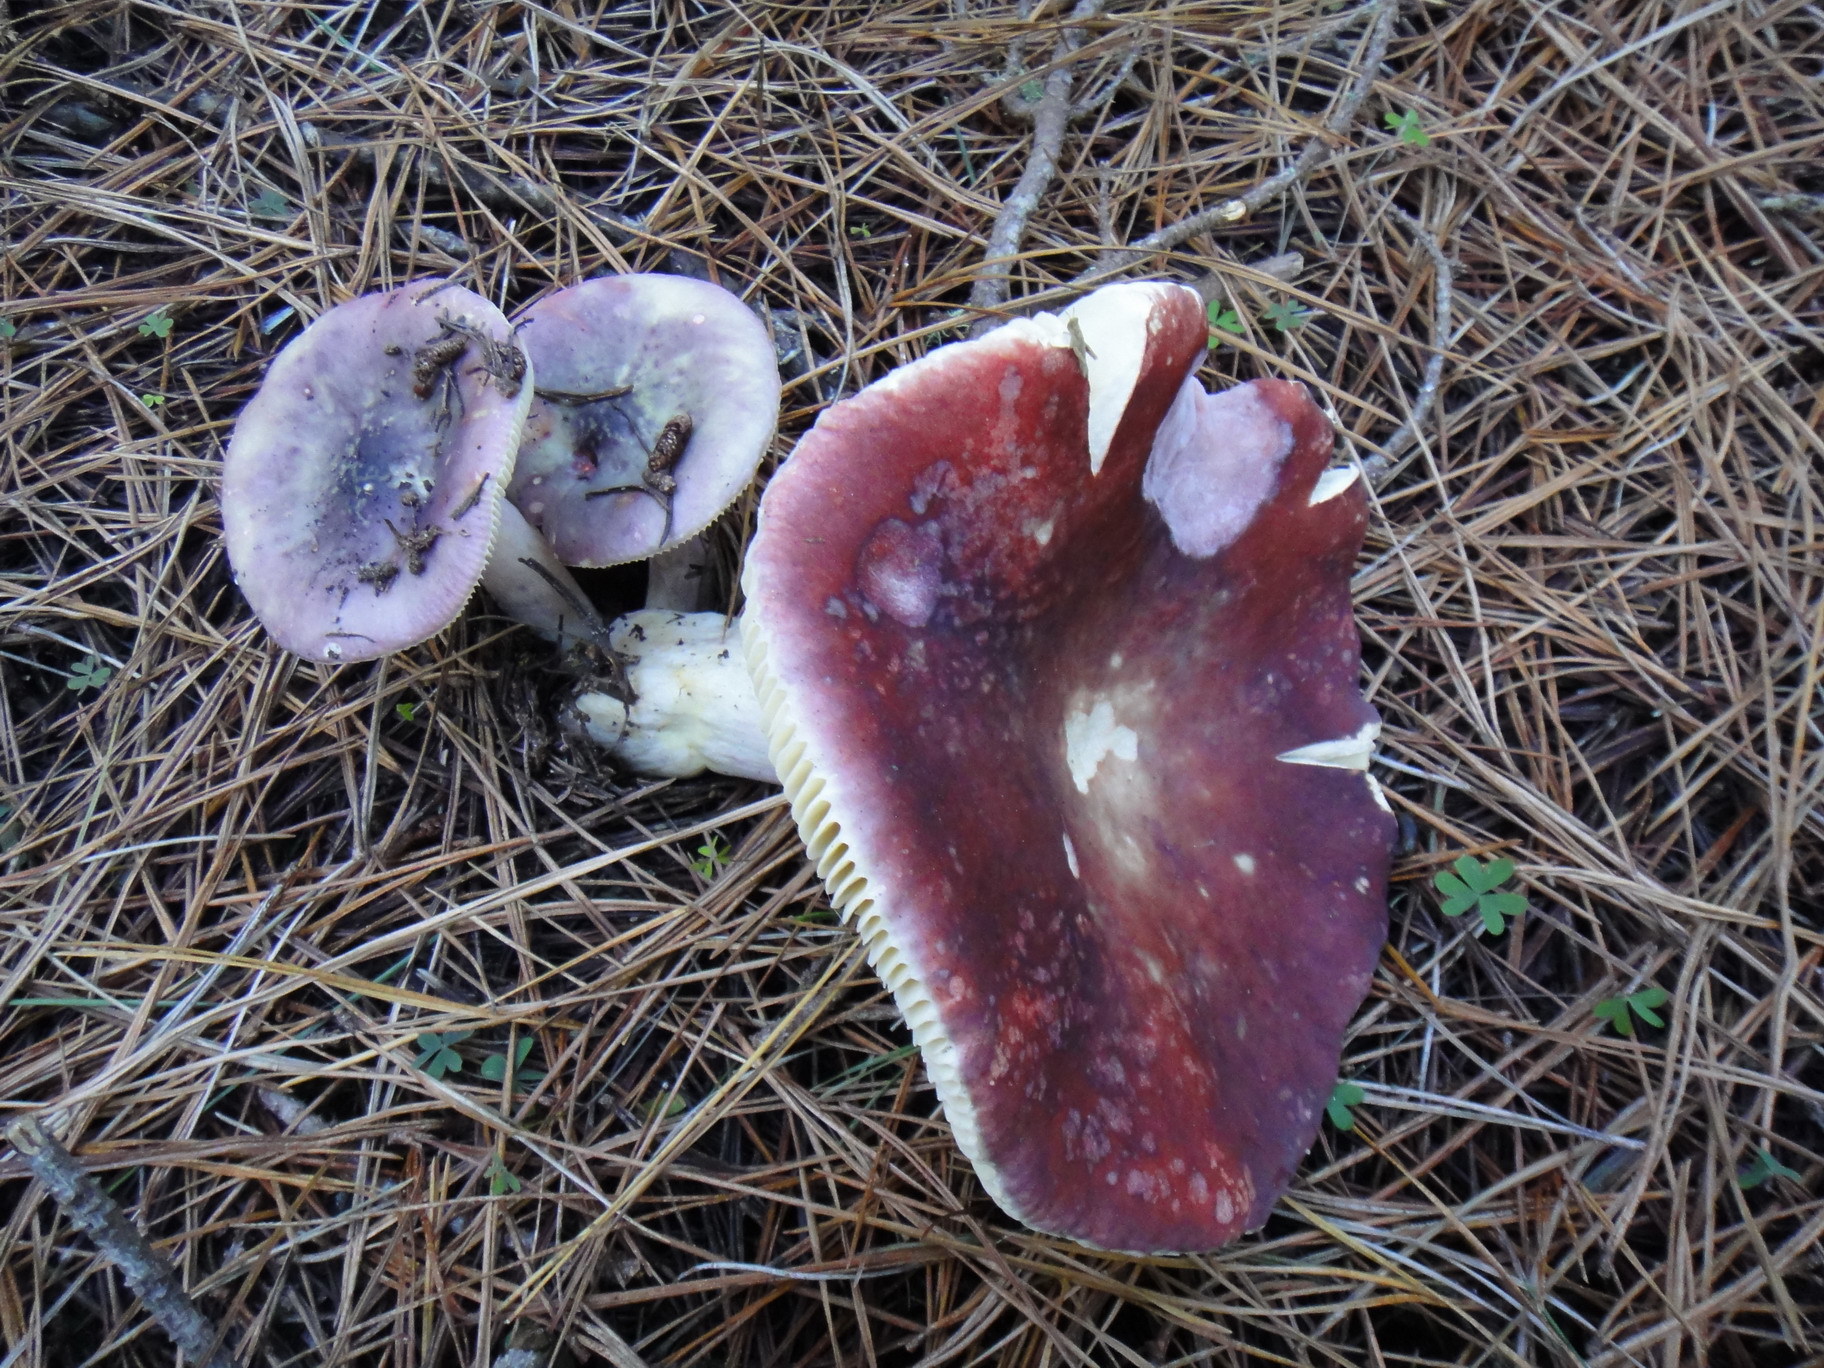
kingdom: Fungi
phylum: Basidiomycota
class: Agaricomycetes
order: Russulales
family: Russulaceae
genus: Russula
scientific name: Russula sardonia
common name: Primrose brittlegill
